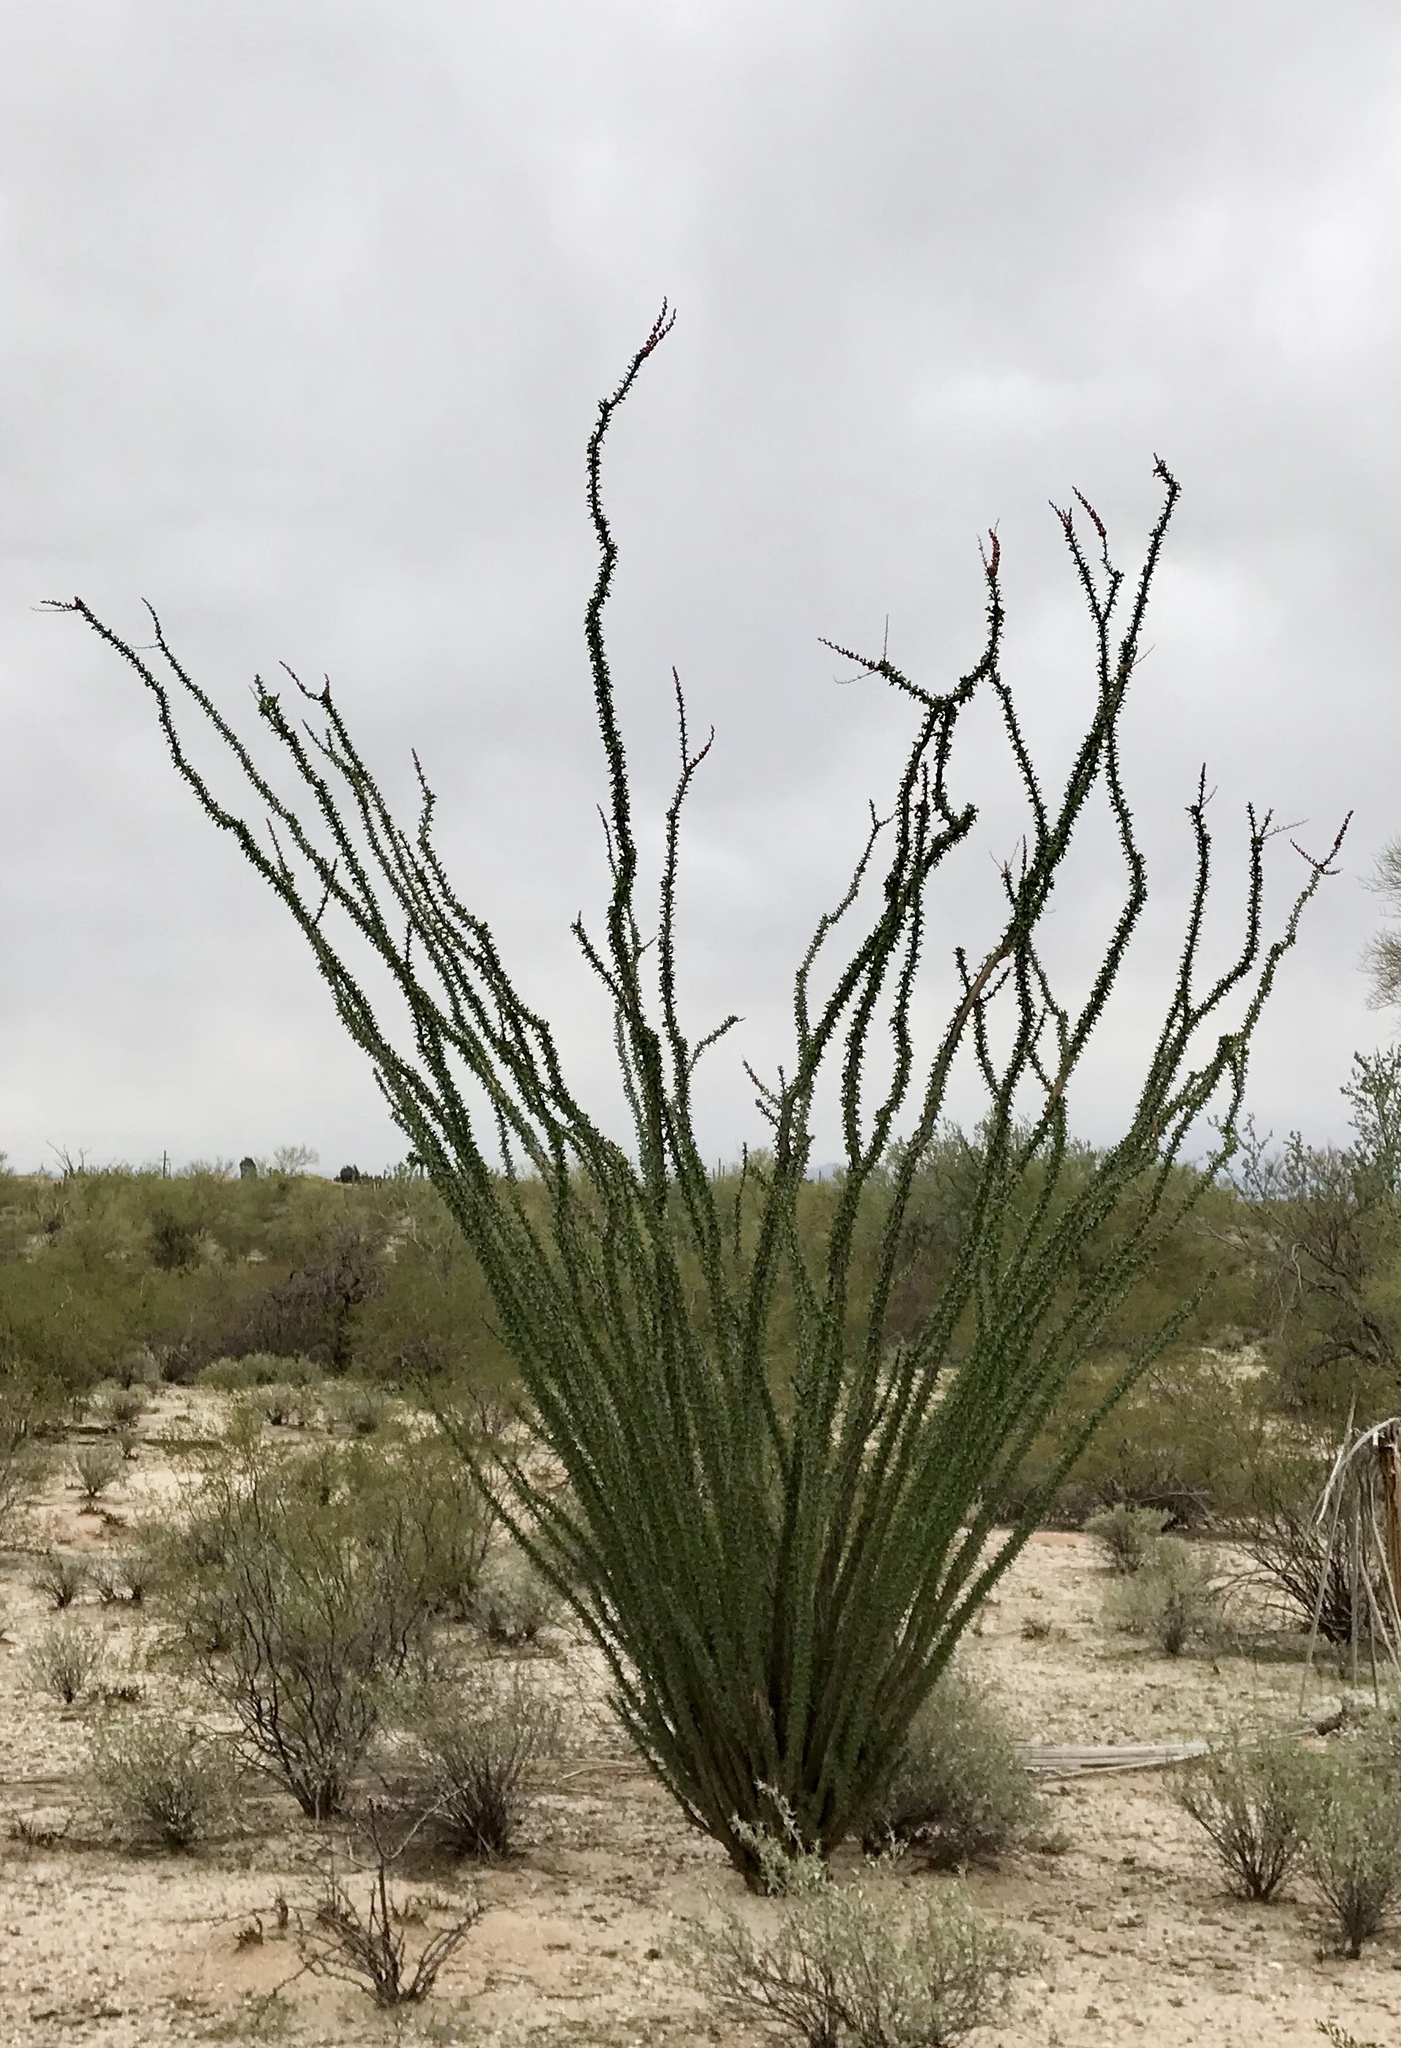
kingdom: Plantae
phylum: Tracheophyta
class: Magnoliopsida
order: Ericales
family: Fouquieriaceae
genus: Fouquieria
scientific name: Fouquieria splendens
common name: Vine-cactus
